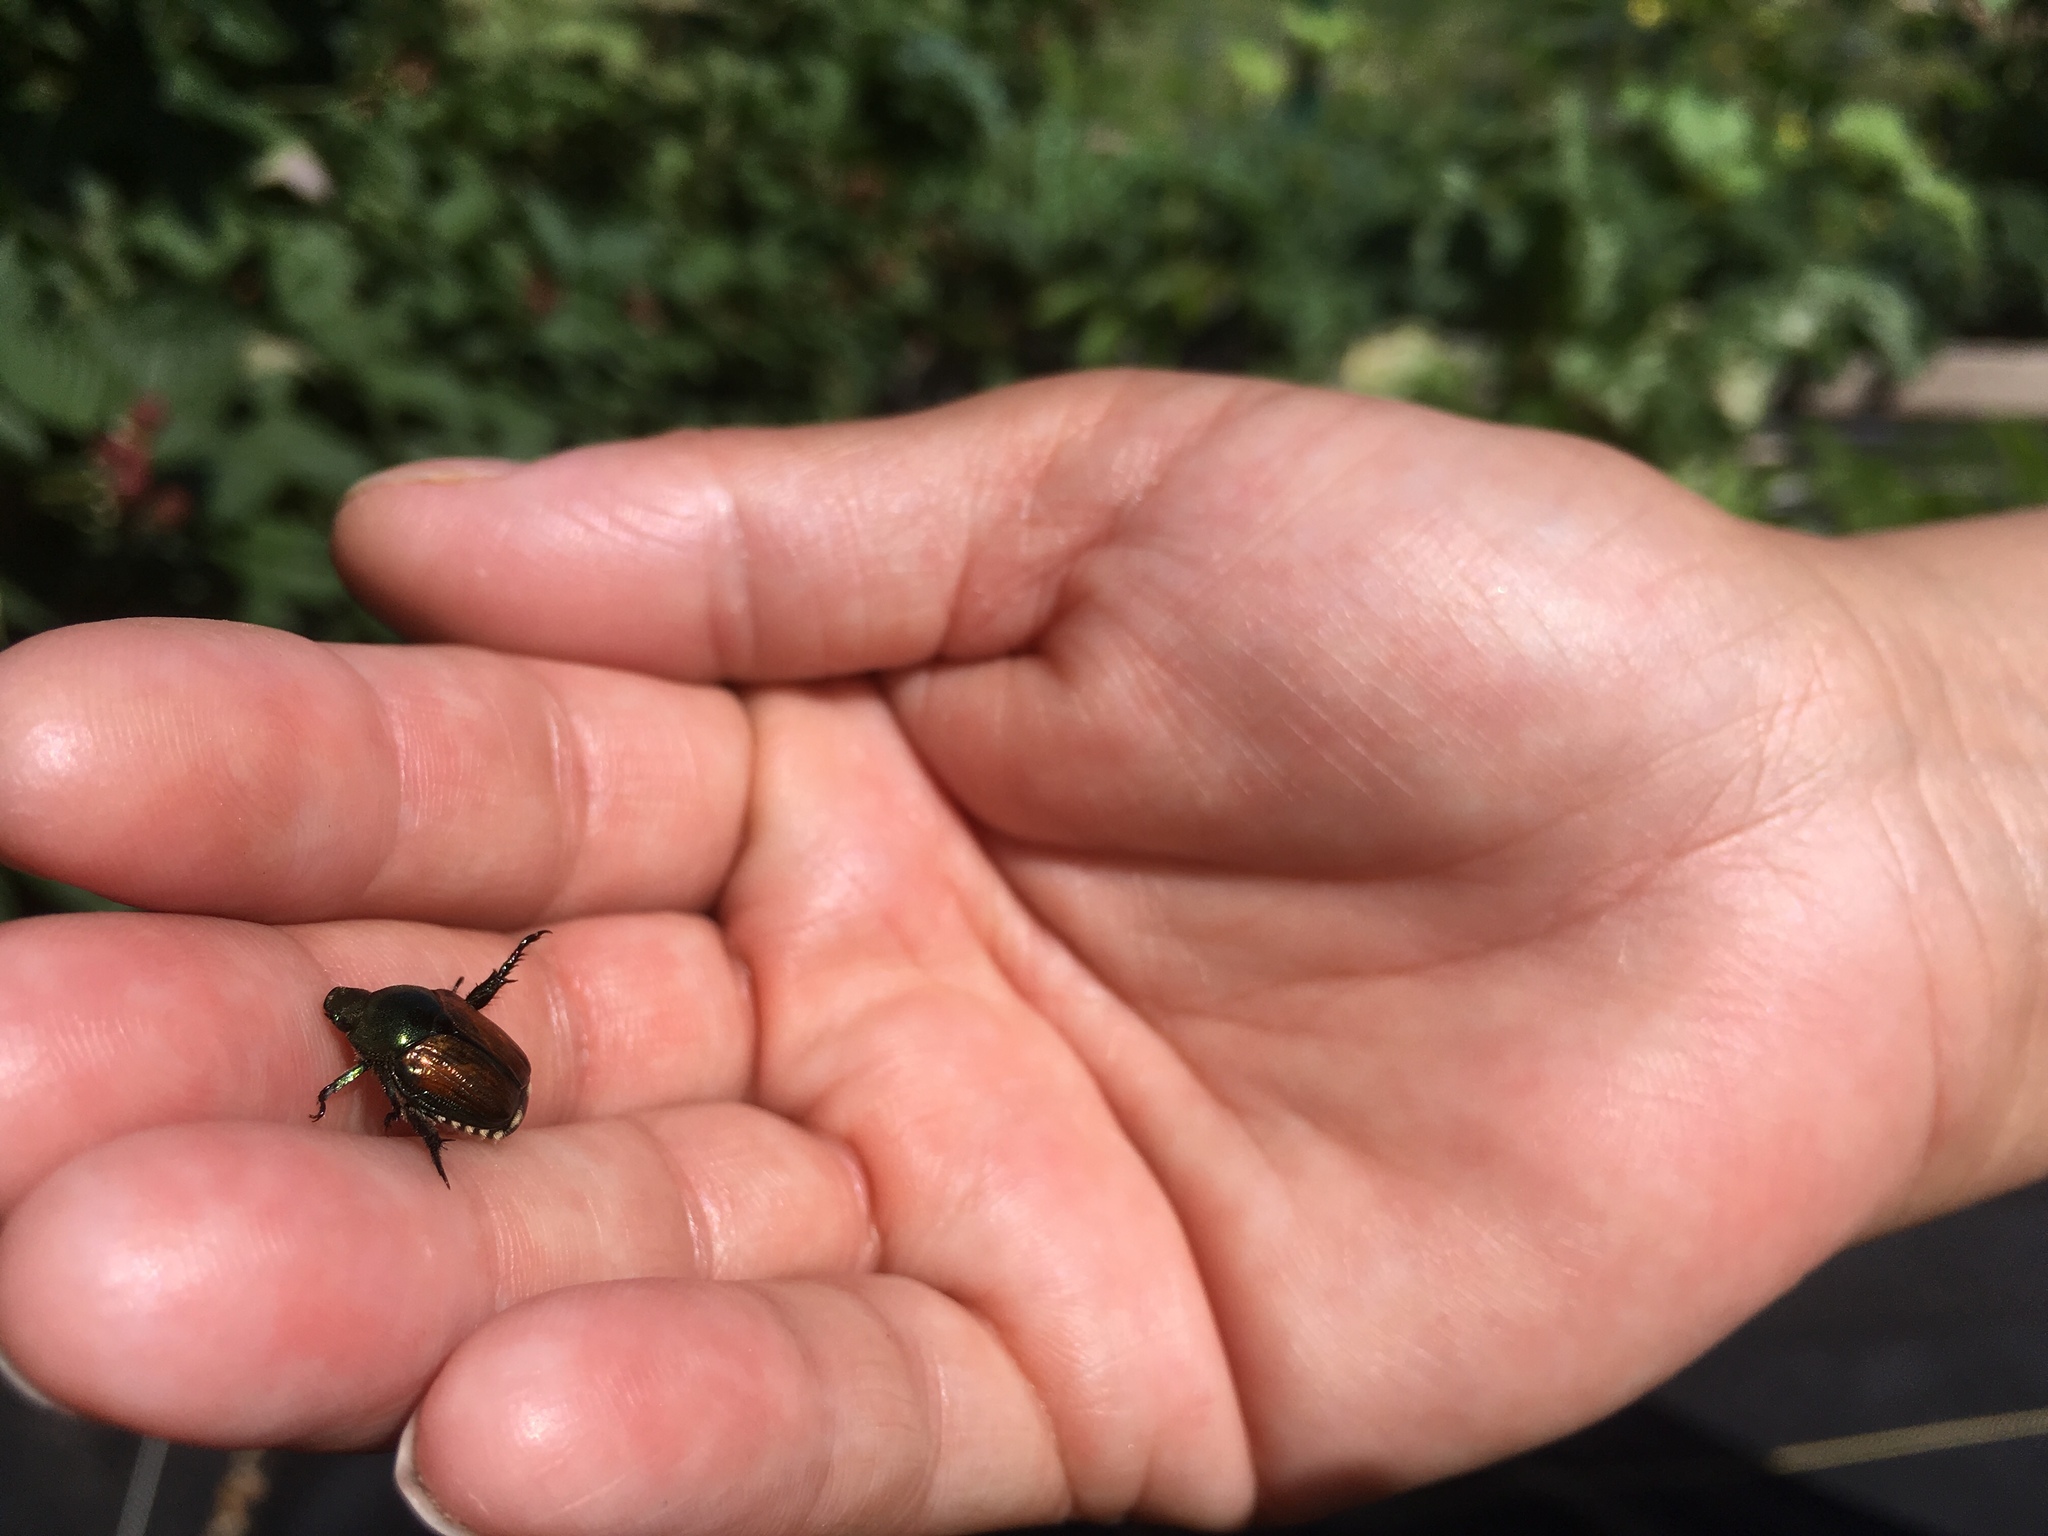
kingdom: Animalia
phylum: Arthropoda
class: Insecta
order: Coleoptera
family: Scarabaeidae
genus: Popillia
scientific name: Popillia japonica
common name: Japanese beetle
